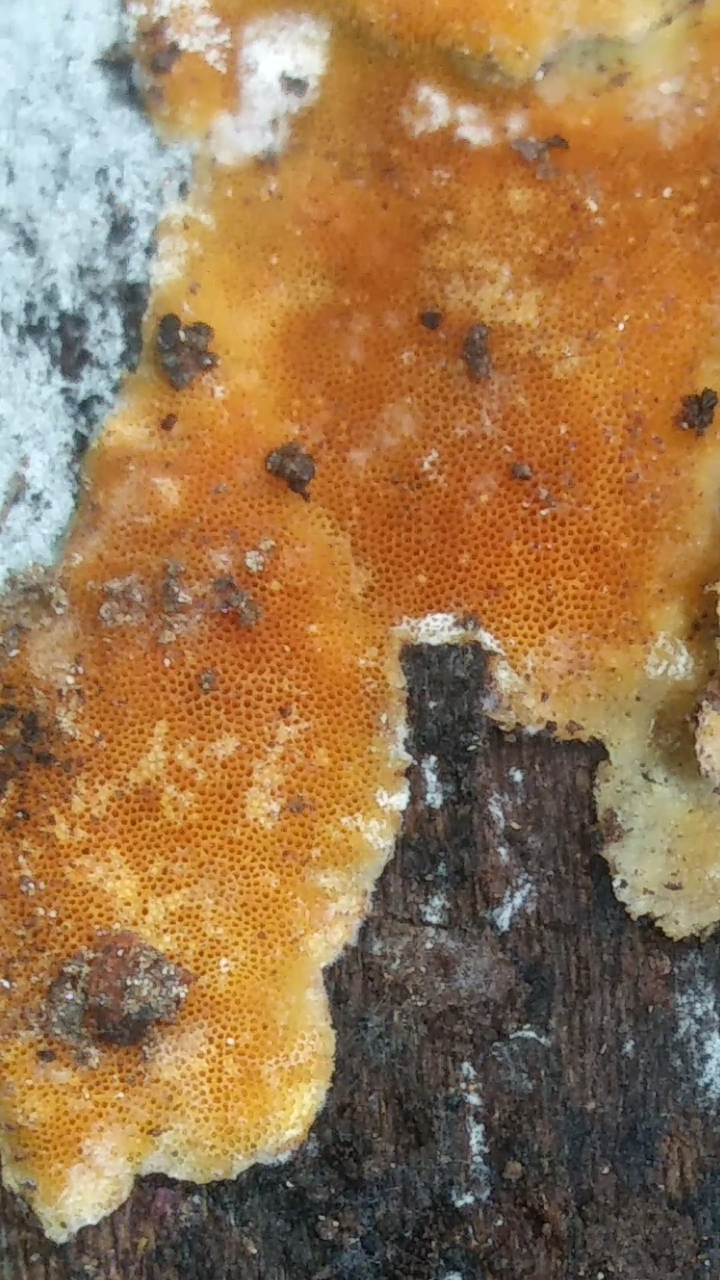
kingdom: Protozoa
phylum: Mycetozoa
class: Protosteliomycetes
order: Ceratiomyxales
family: Ceratiomyxaceae
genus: Ceratiomyxa
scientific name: Ceratiomyxa fruticulosa
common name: Honeycomb coral slime mold
